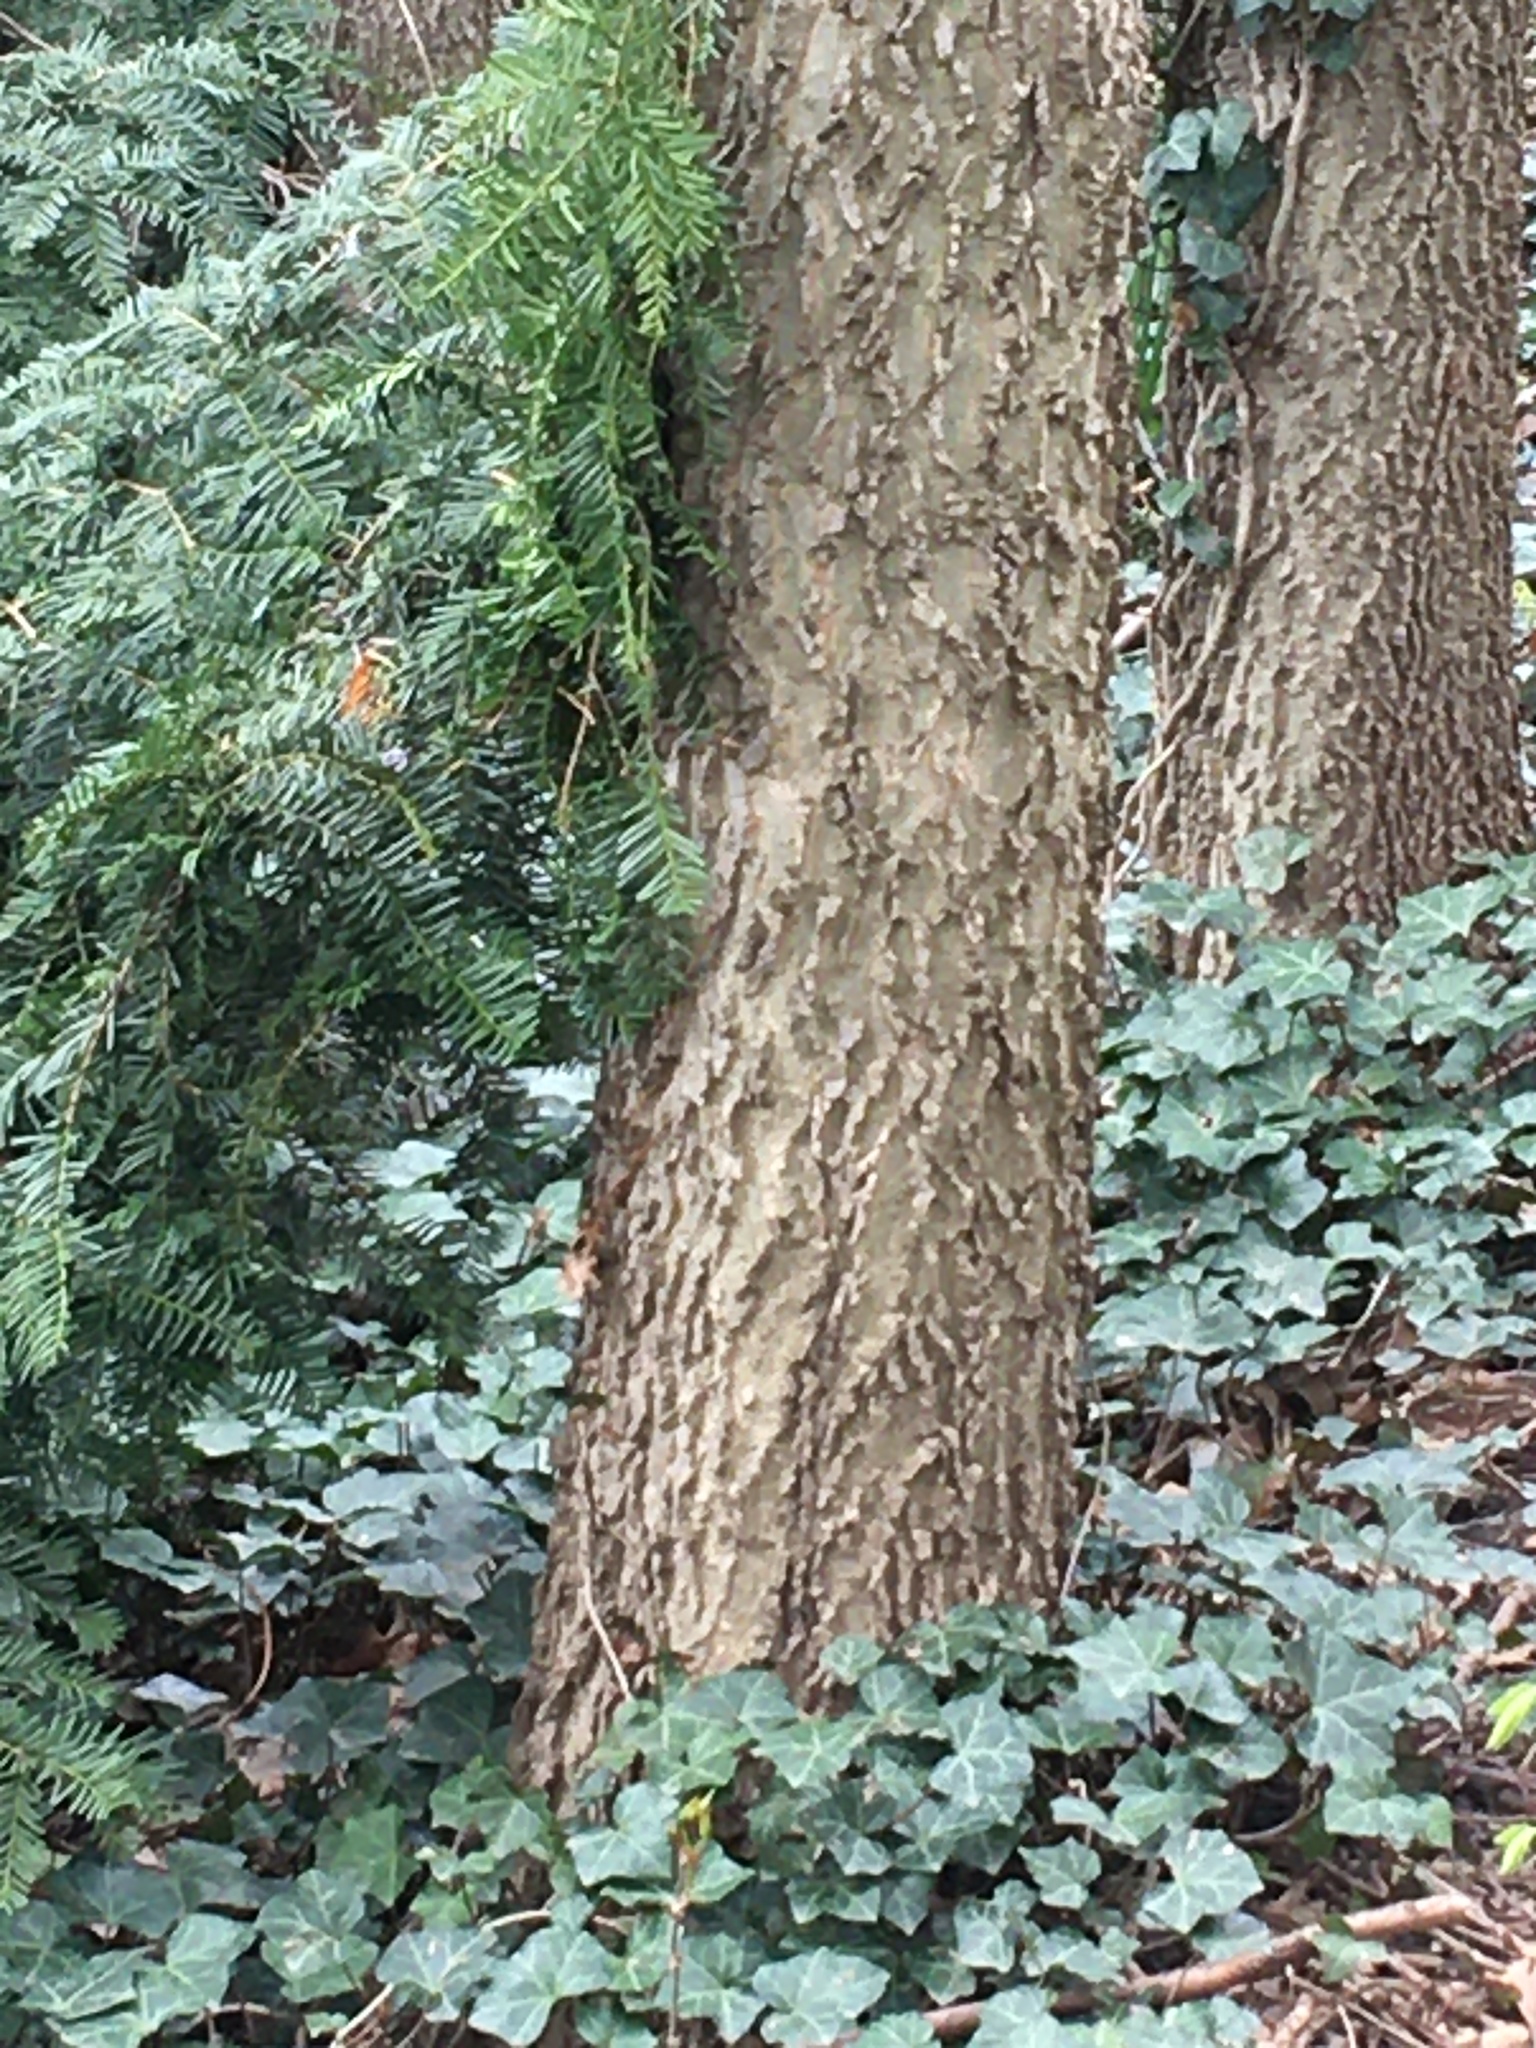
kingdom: Plantae
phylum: Tracheophyta
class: Magnoliopsida
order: Rosales
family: Cannabaceae
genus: Celtis
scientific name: Celtis occidentalis
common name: Common hackberry
